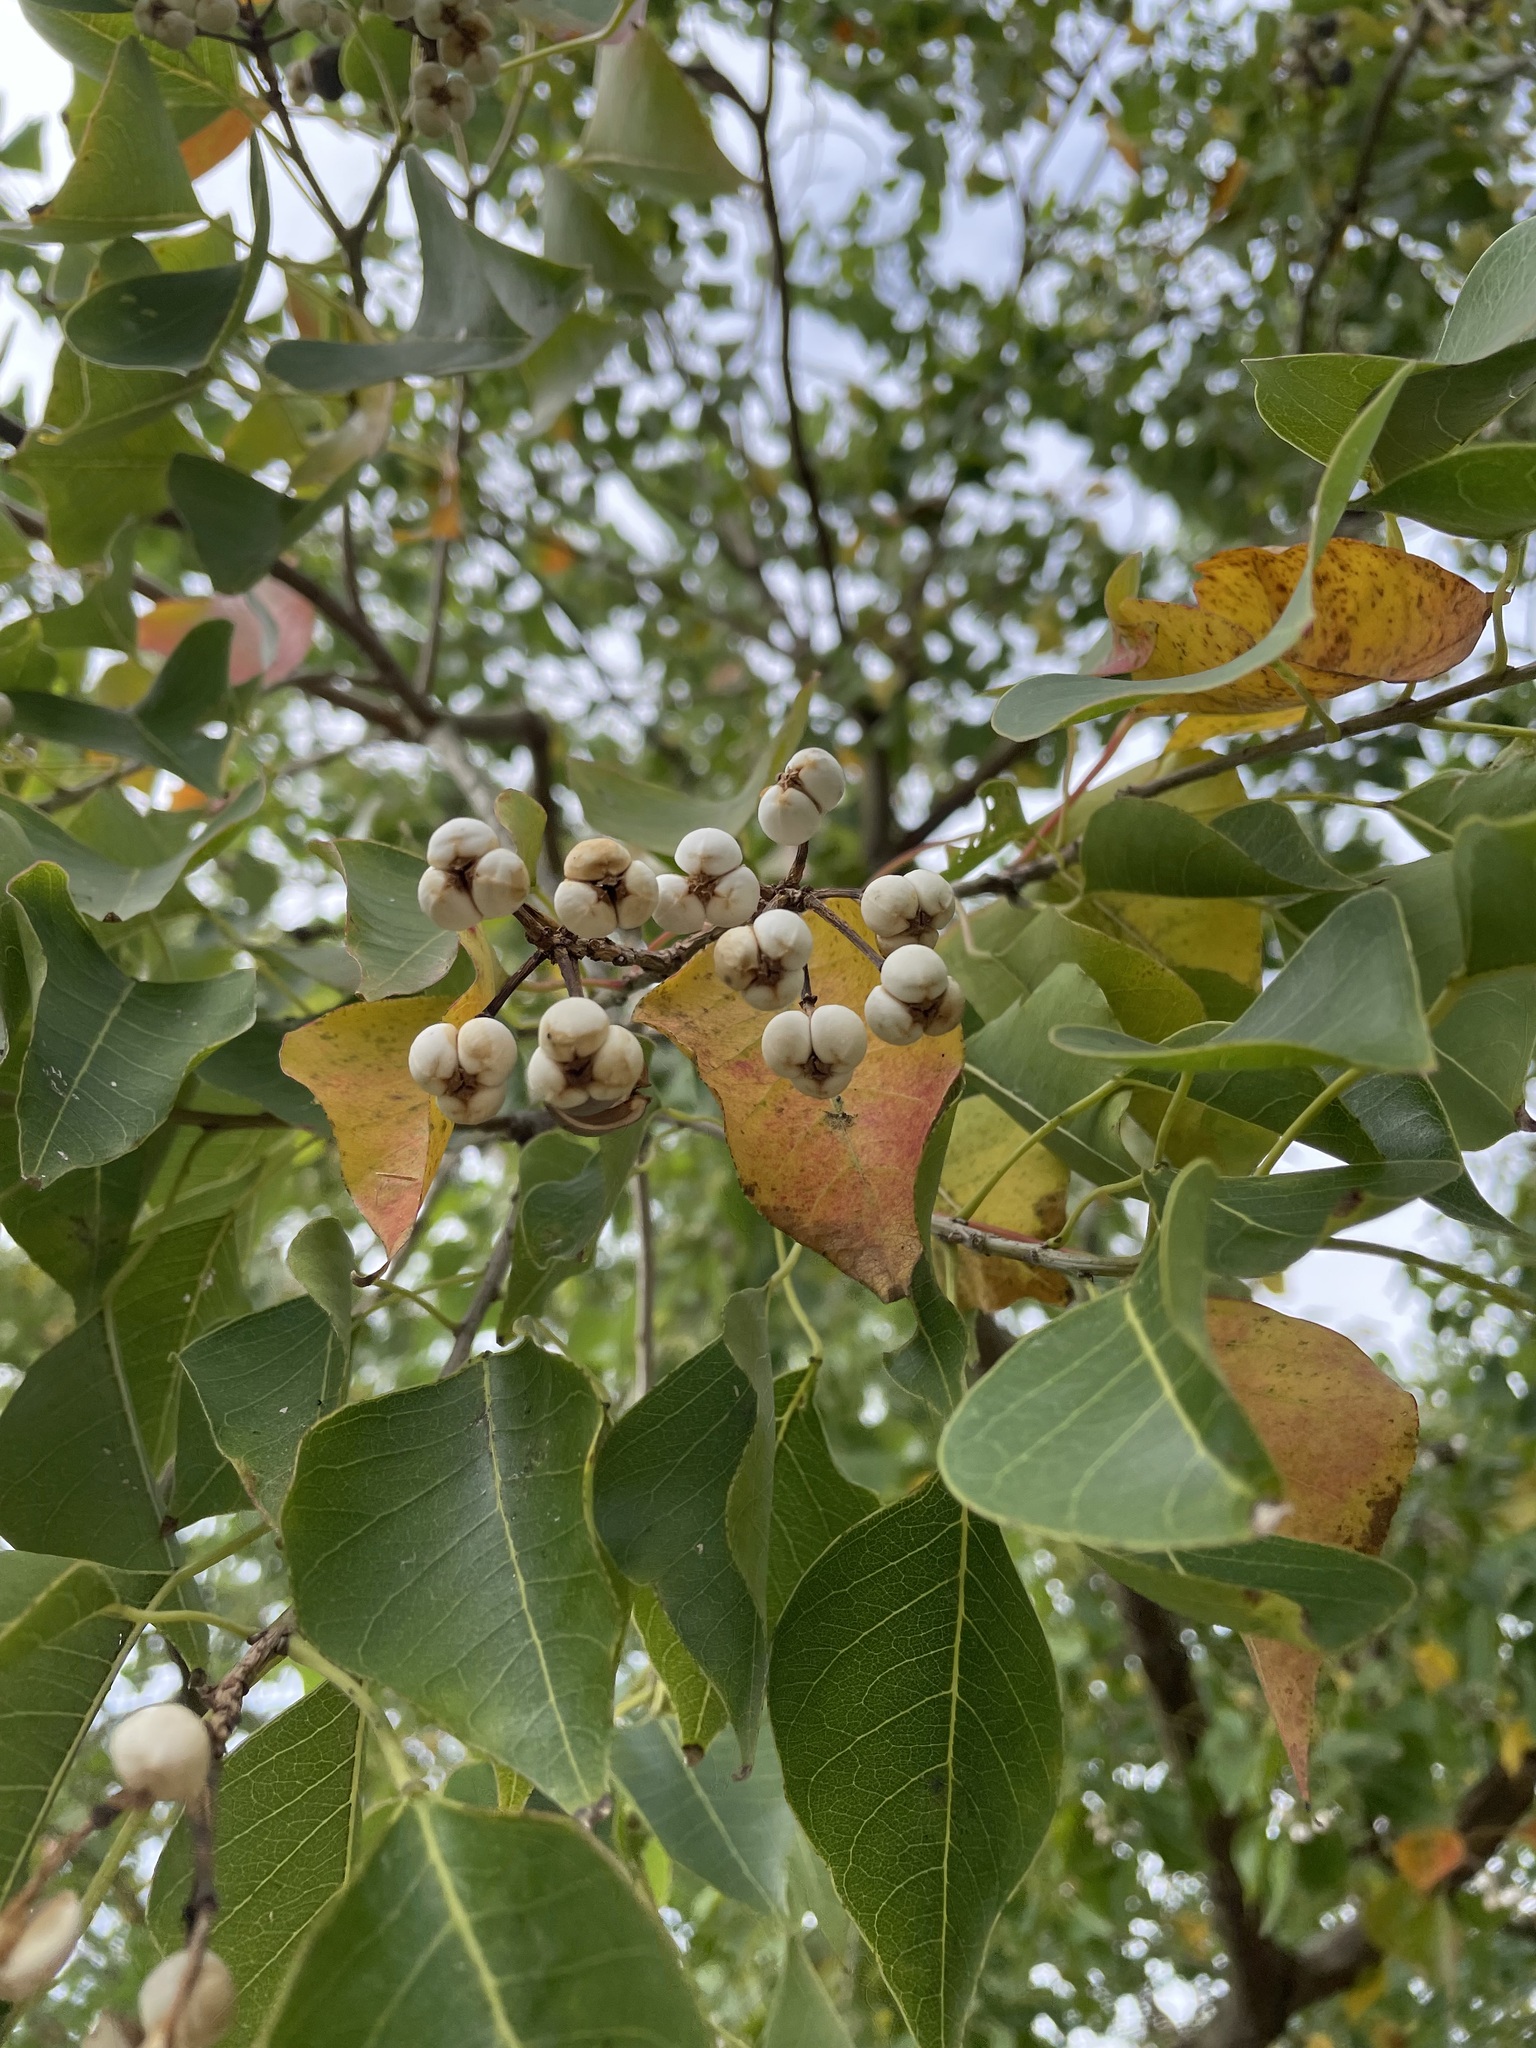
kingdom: Plantae
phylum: Tracheophyta
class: Magnoliopsida
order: Malpighiales
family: Euphorbiaceae
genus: Triadica
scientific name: Triadica sebifera
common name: Chinese tallow
